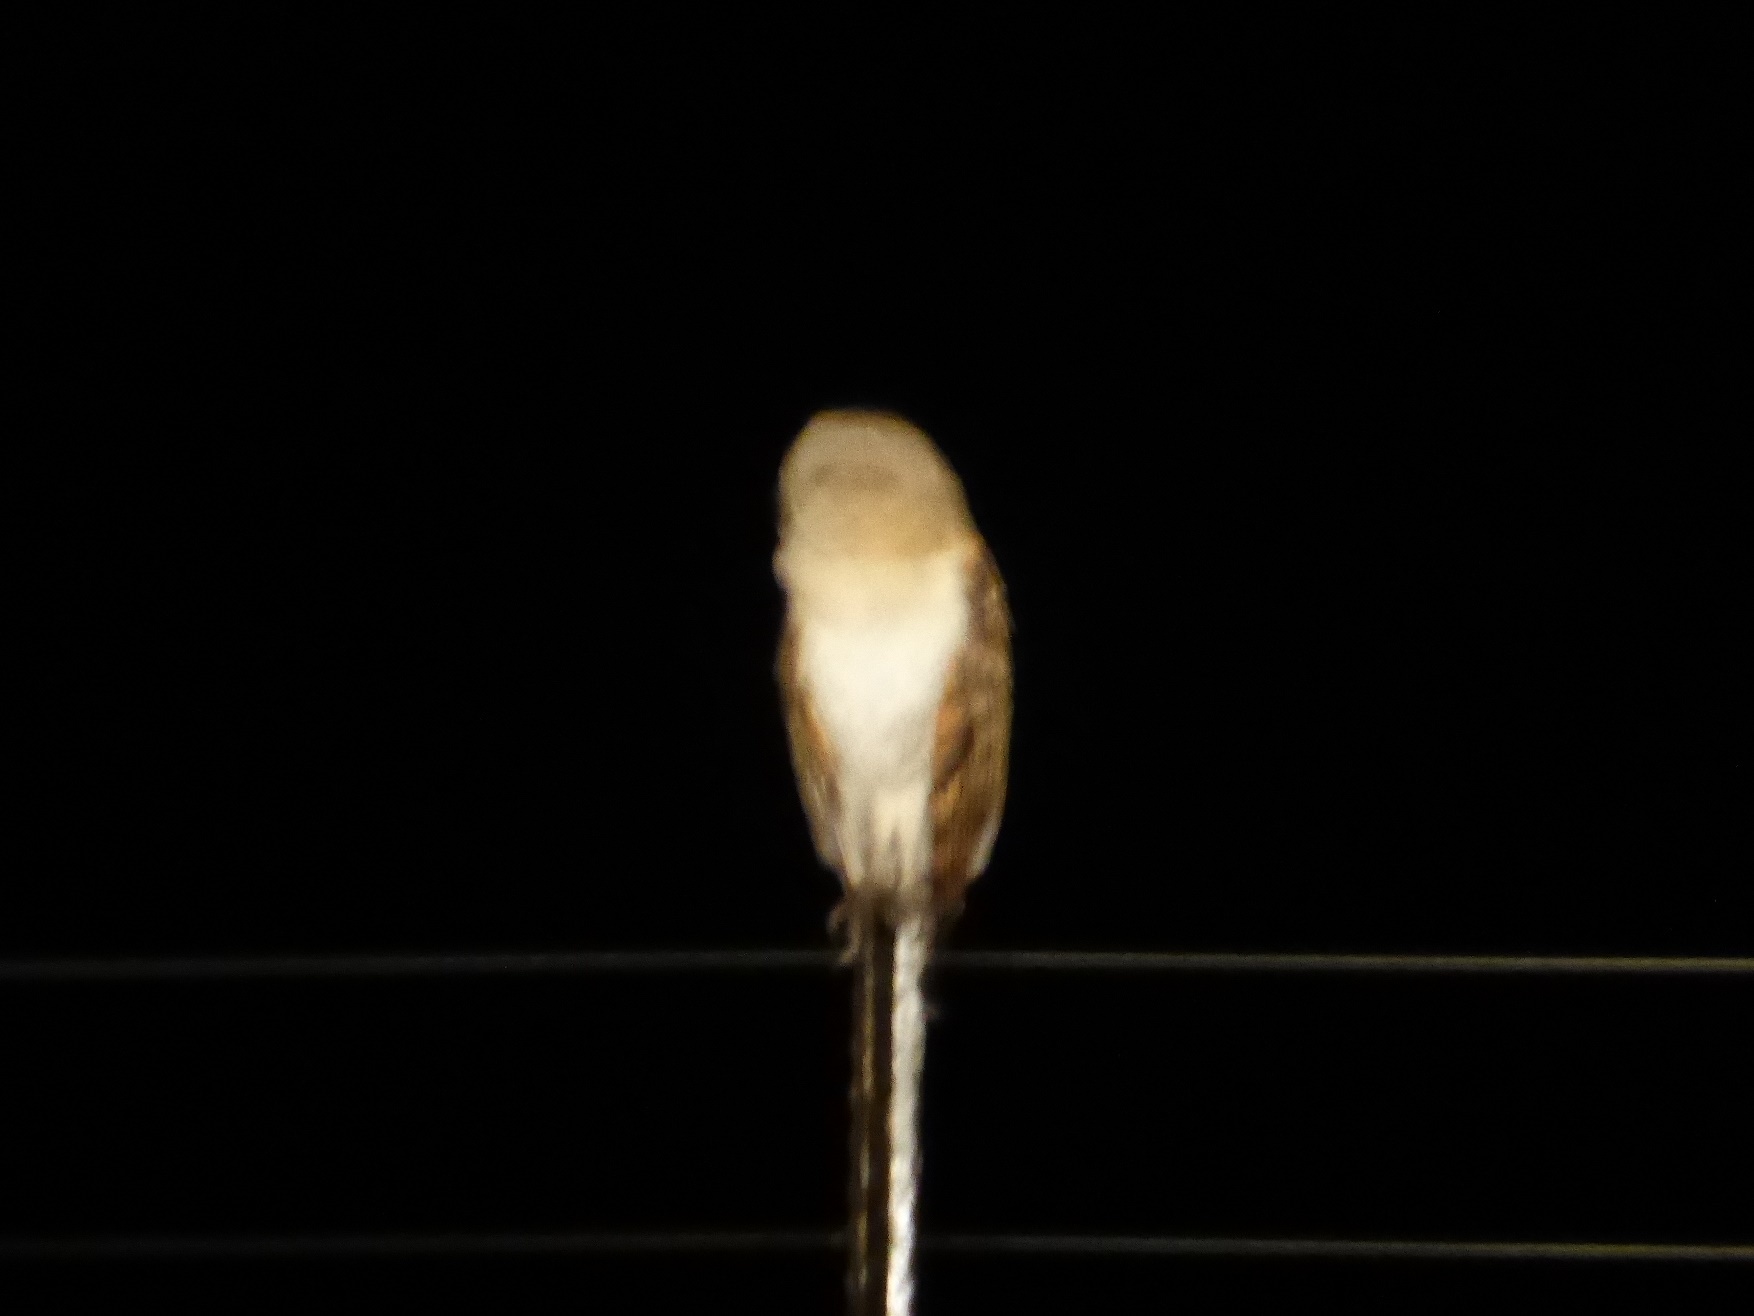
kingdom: Animalia
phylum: Chordata
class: Aves
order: Strigiformes
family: Tytonidae
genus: Tyto
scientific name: Tyto alba
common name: Barn owl
